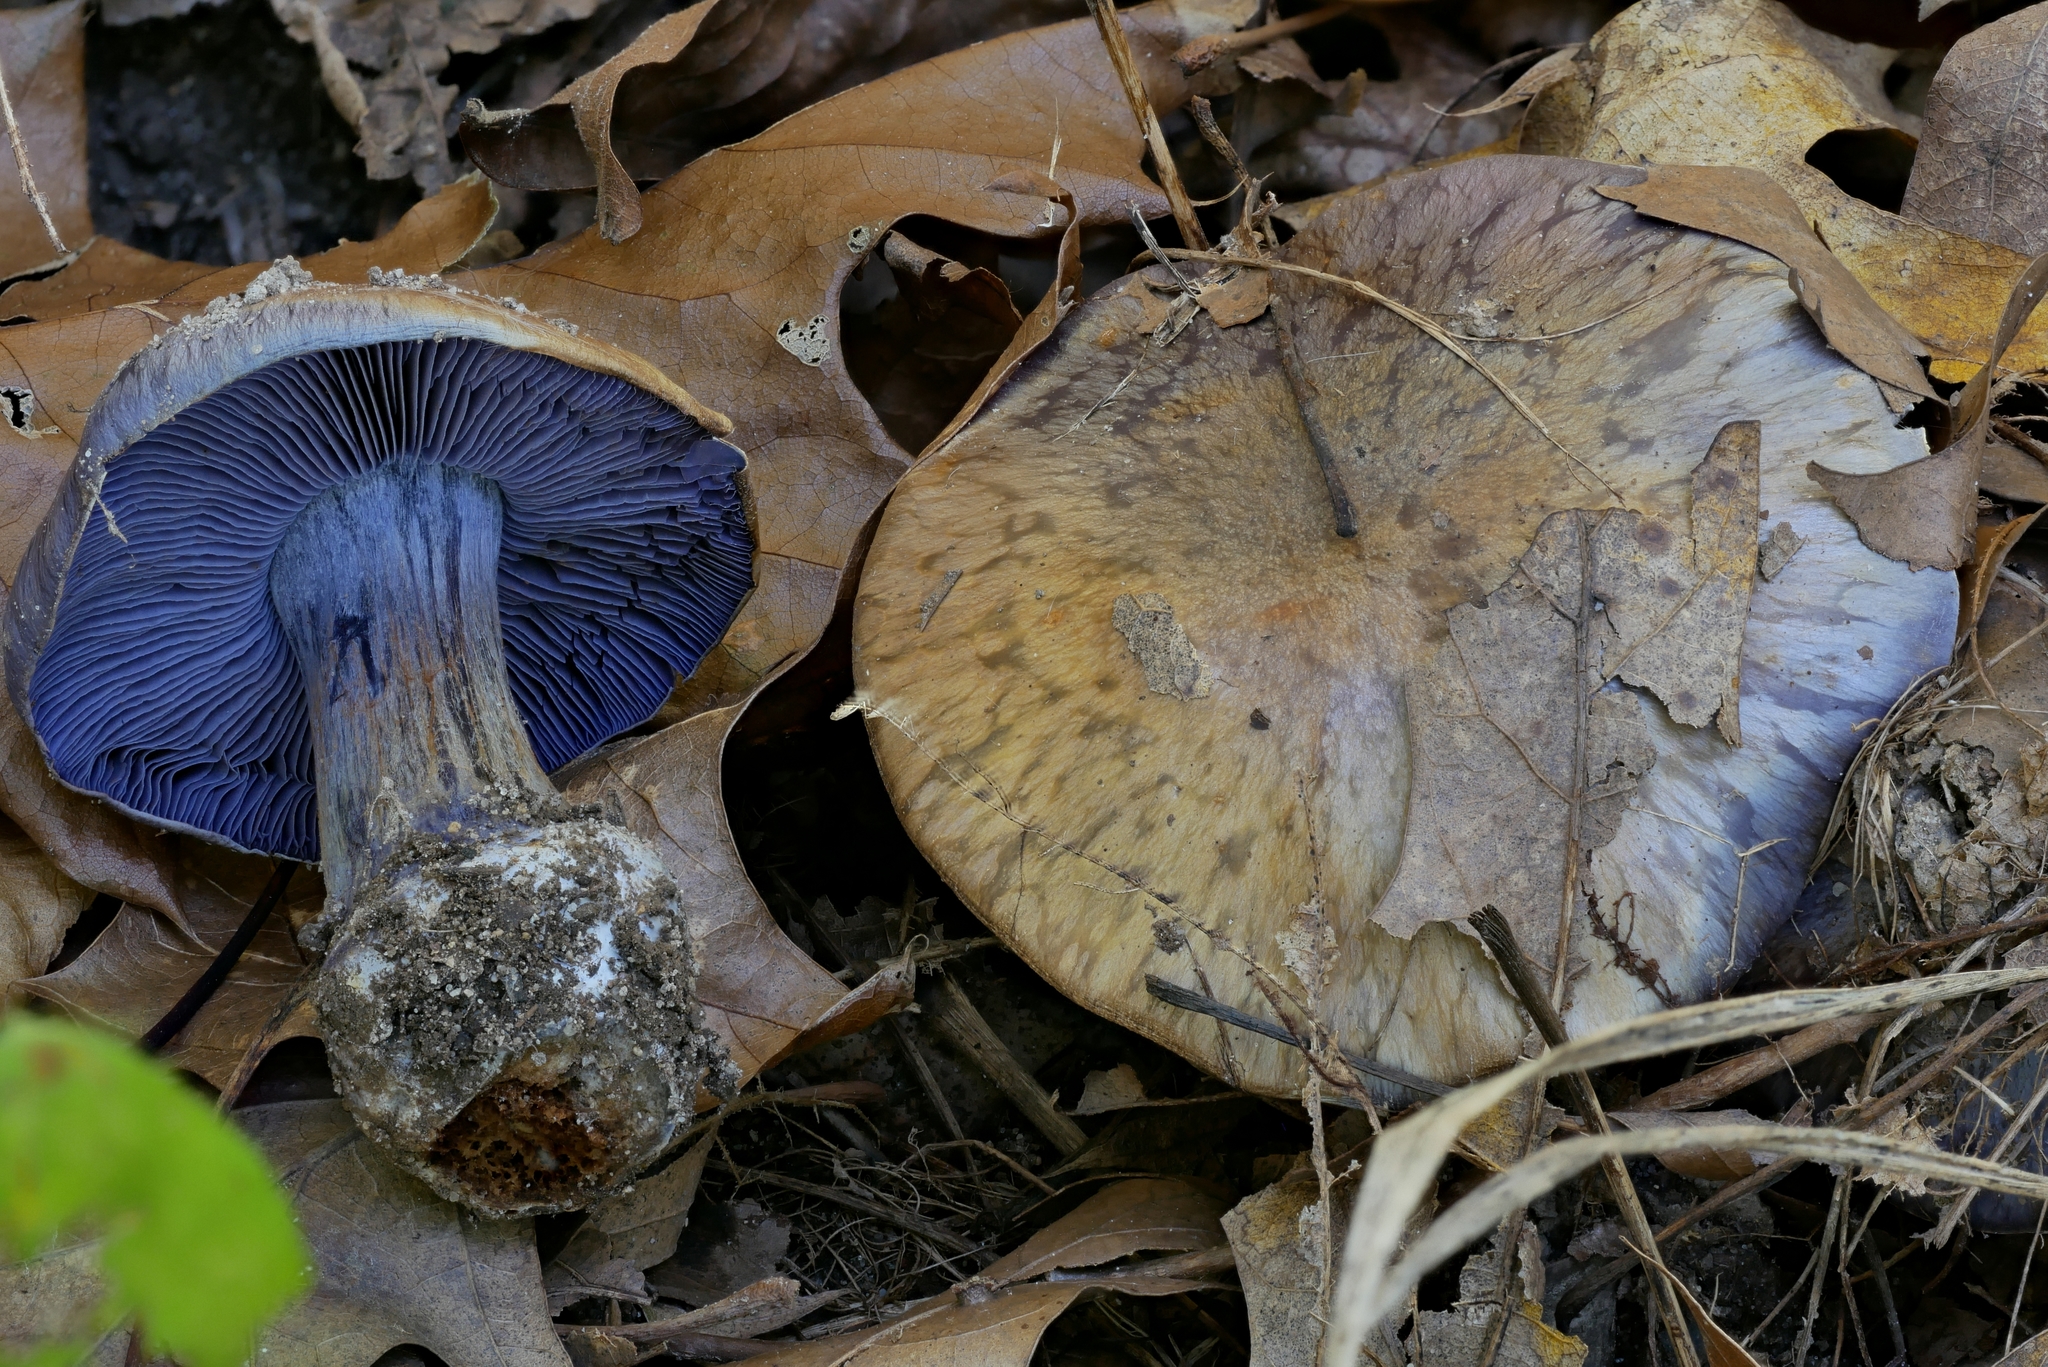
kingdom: Fungi
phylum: Basidiomycota
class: Agaricomycetes
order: Agaricales
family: Cortinariaceae
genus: Phlegmacium
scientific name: Phlegmacium subsolitarium
